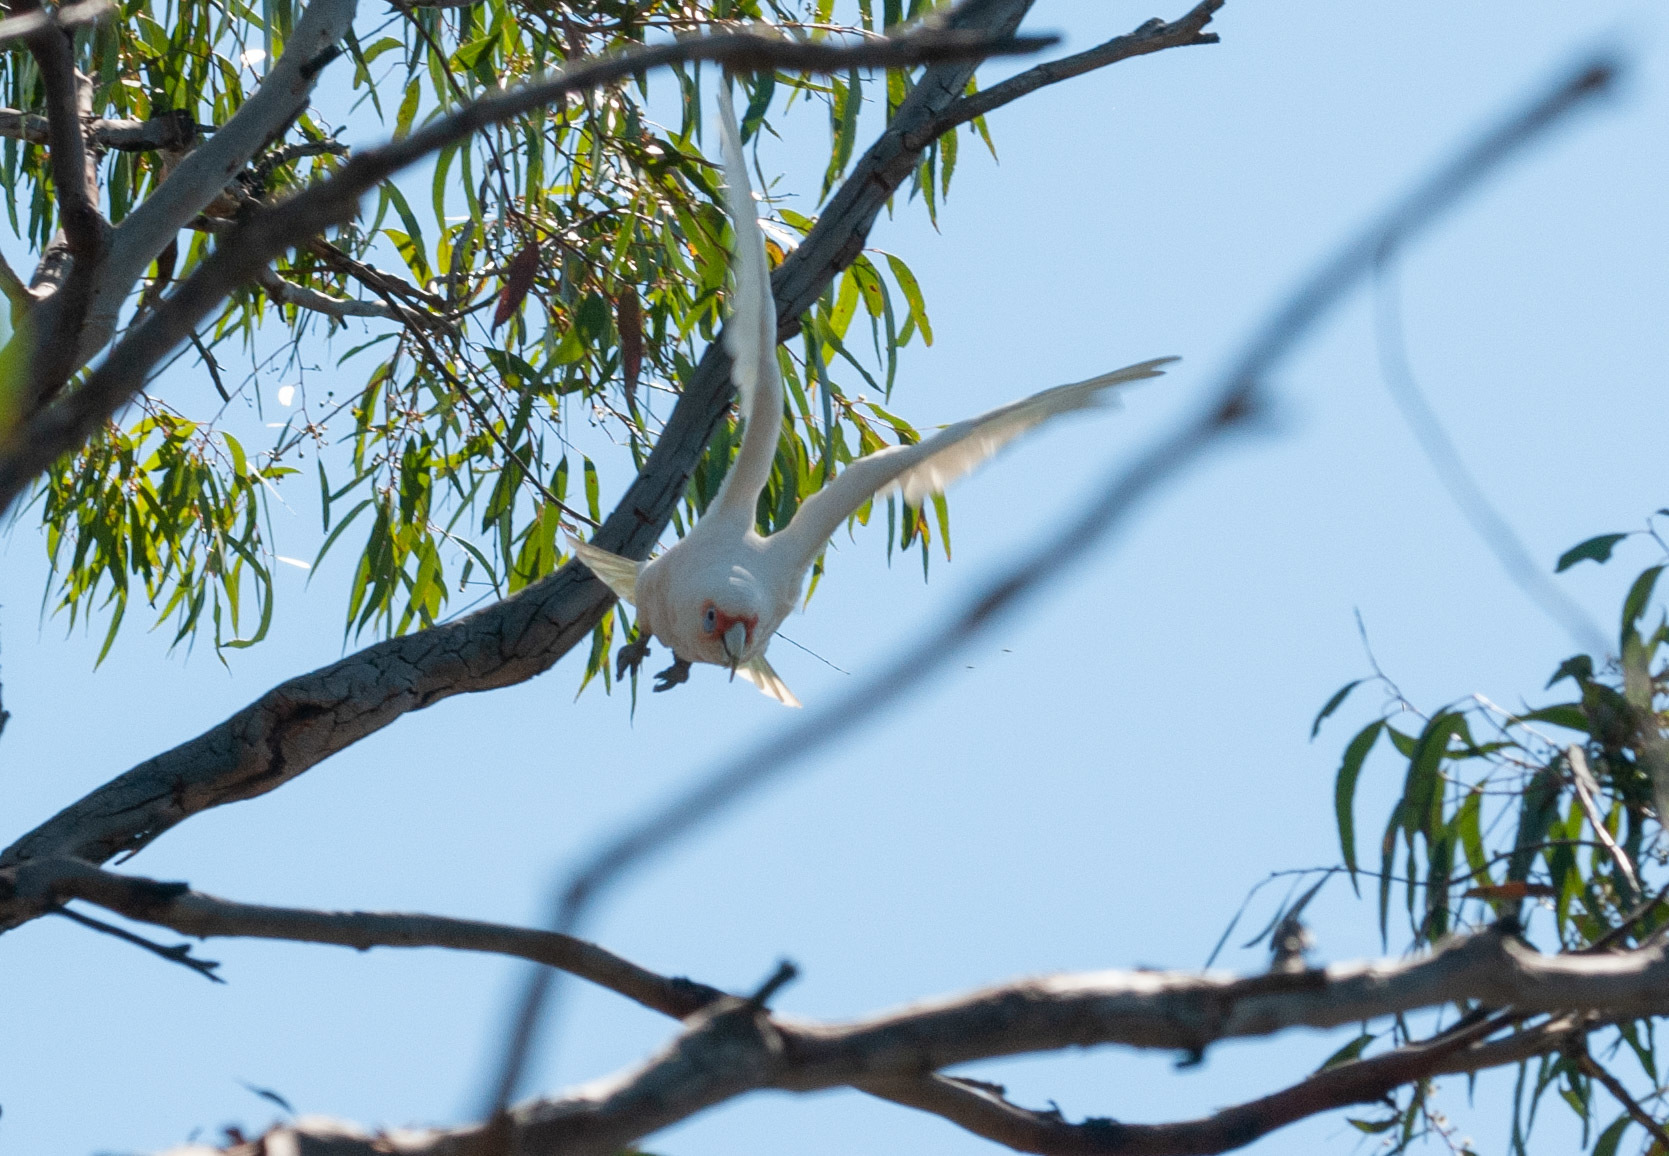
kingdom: Animalia
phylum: Chordata
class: Aves
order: Psittaciformes
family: Psittacidae
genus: Cacatua
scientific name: Cacatua tenuirostris
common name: Long-billed corella
